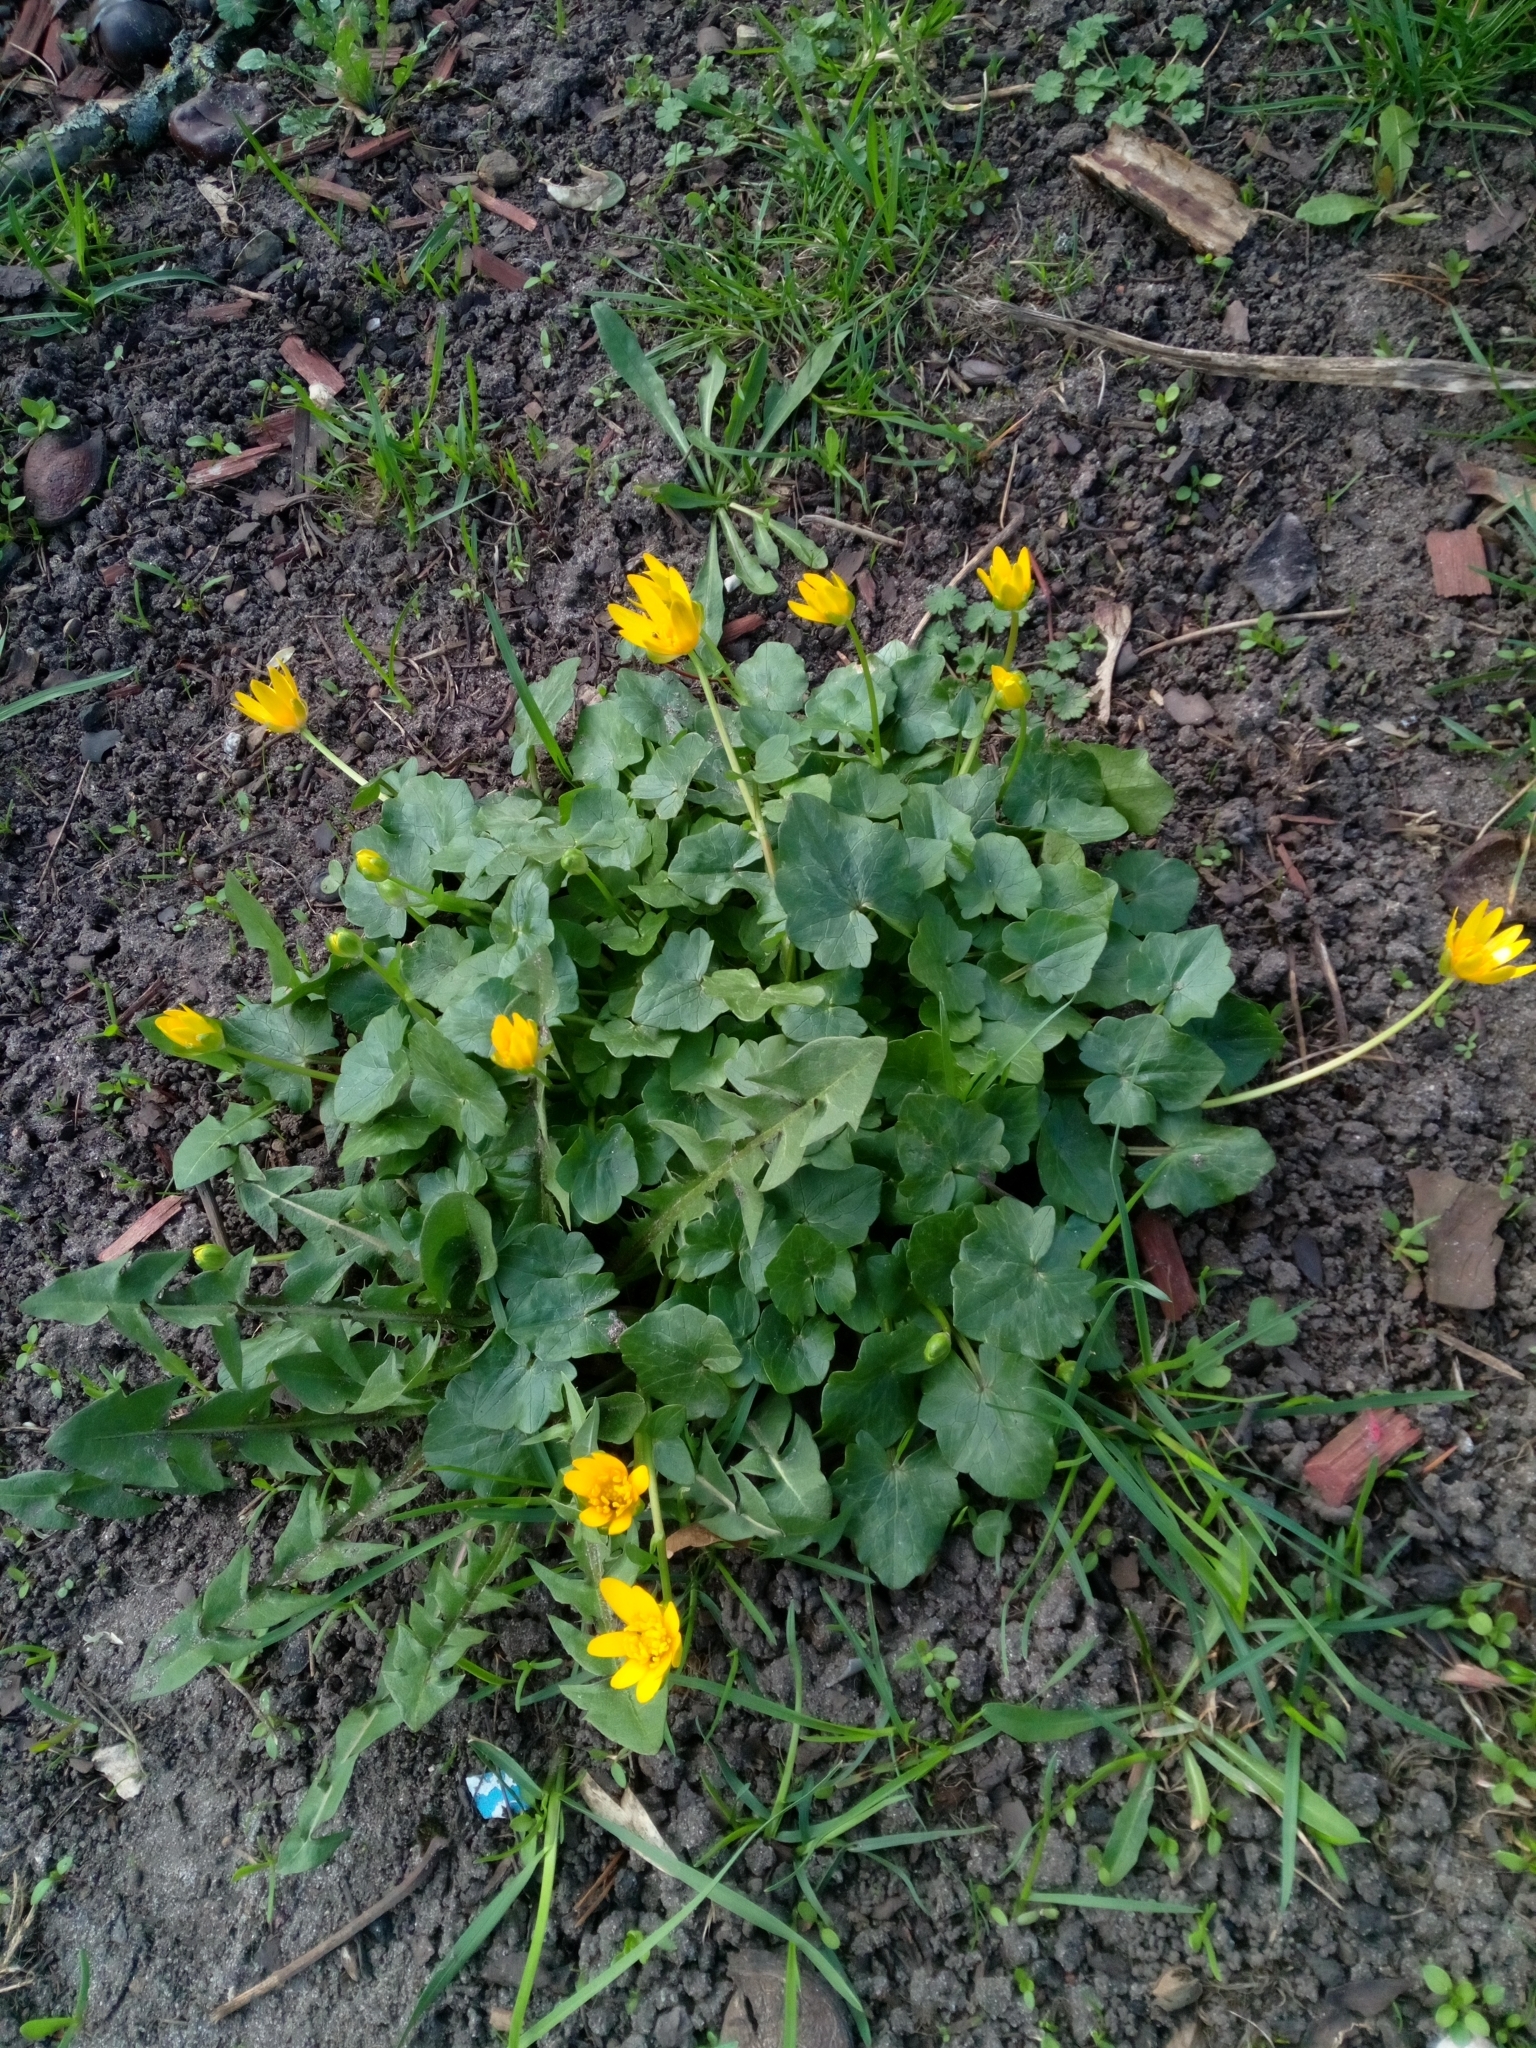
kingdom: Plantae
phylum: Tracheophyta
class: Magnoliopsida
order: Ranunculales
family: Ranunculaceae
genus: Ficaria
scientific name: Ficaria verna
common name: Lesser celandine
